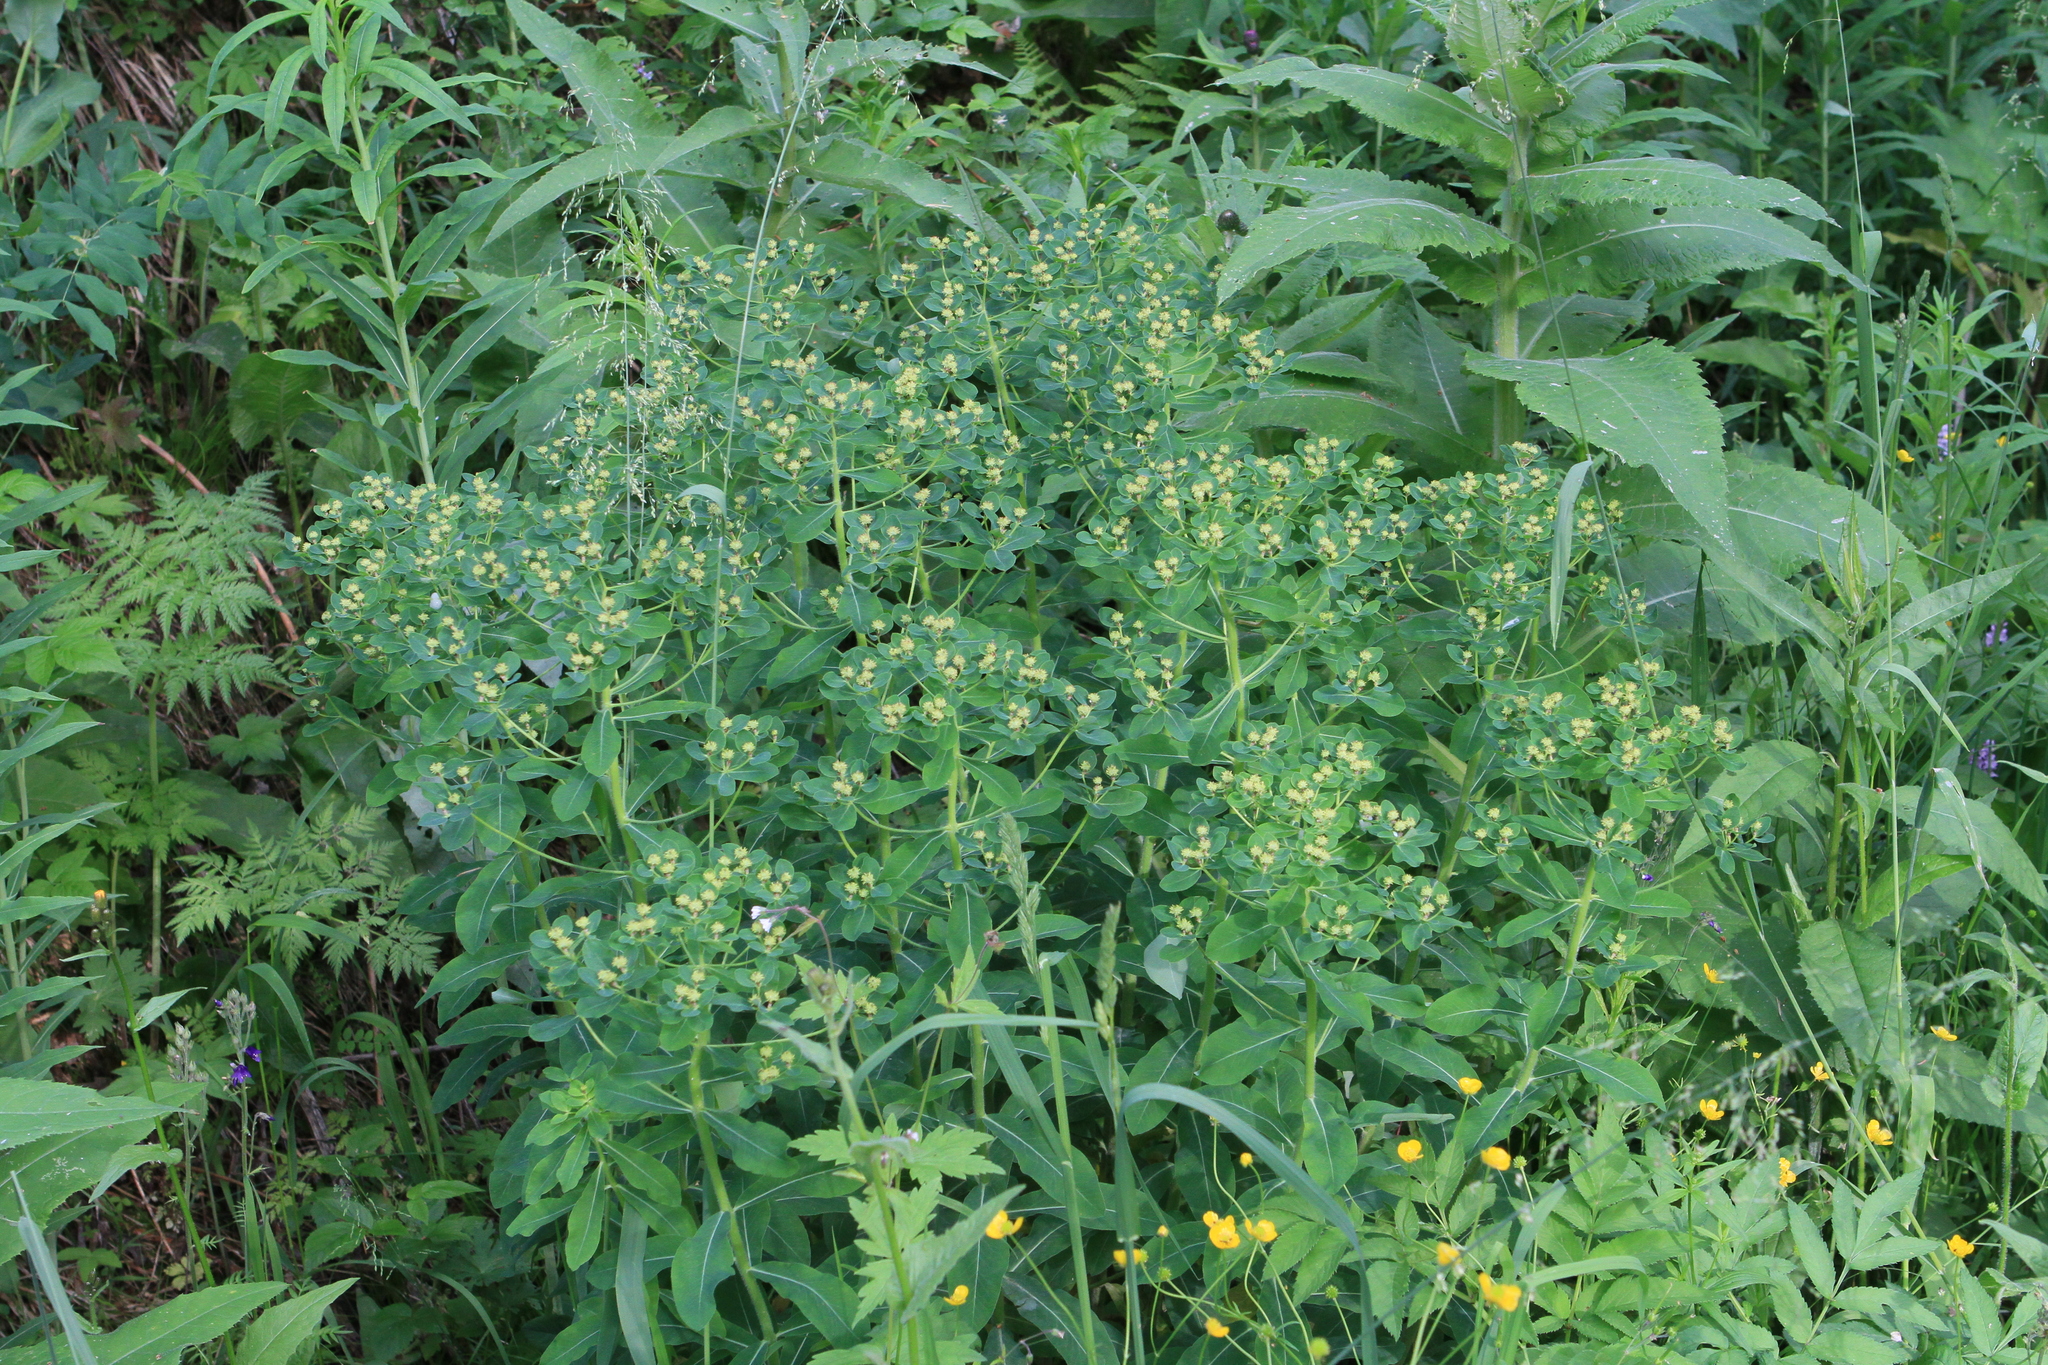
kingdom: Plantae
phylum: Tracheophyta
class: Magnoliopsida
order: Malpighiales
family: Euphorbiaceae
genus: Euphorbia
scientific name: Euphorbia pilosa
